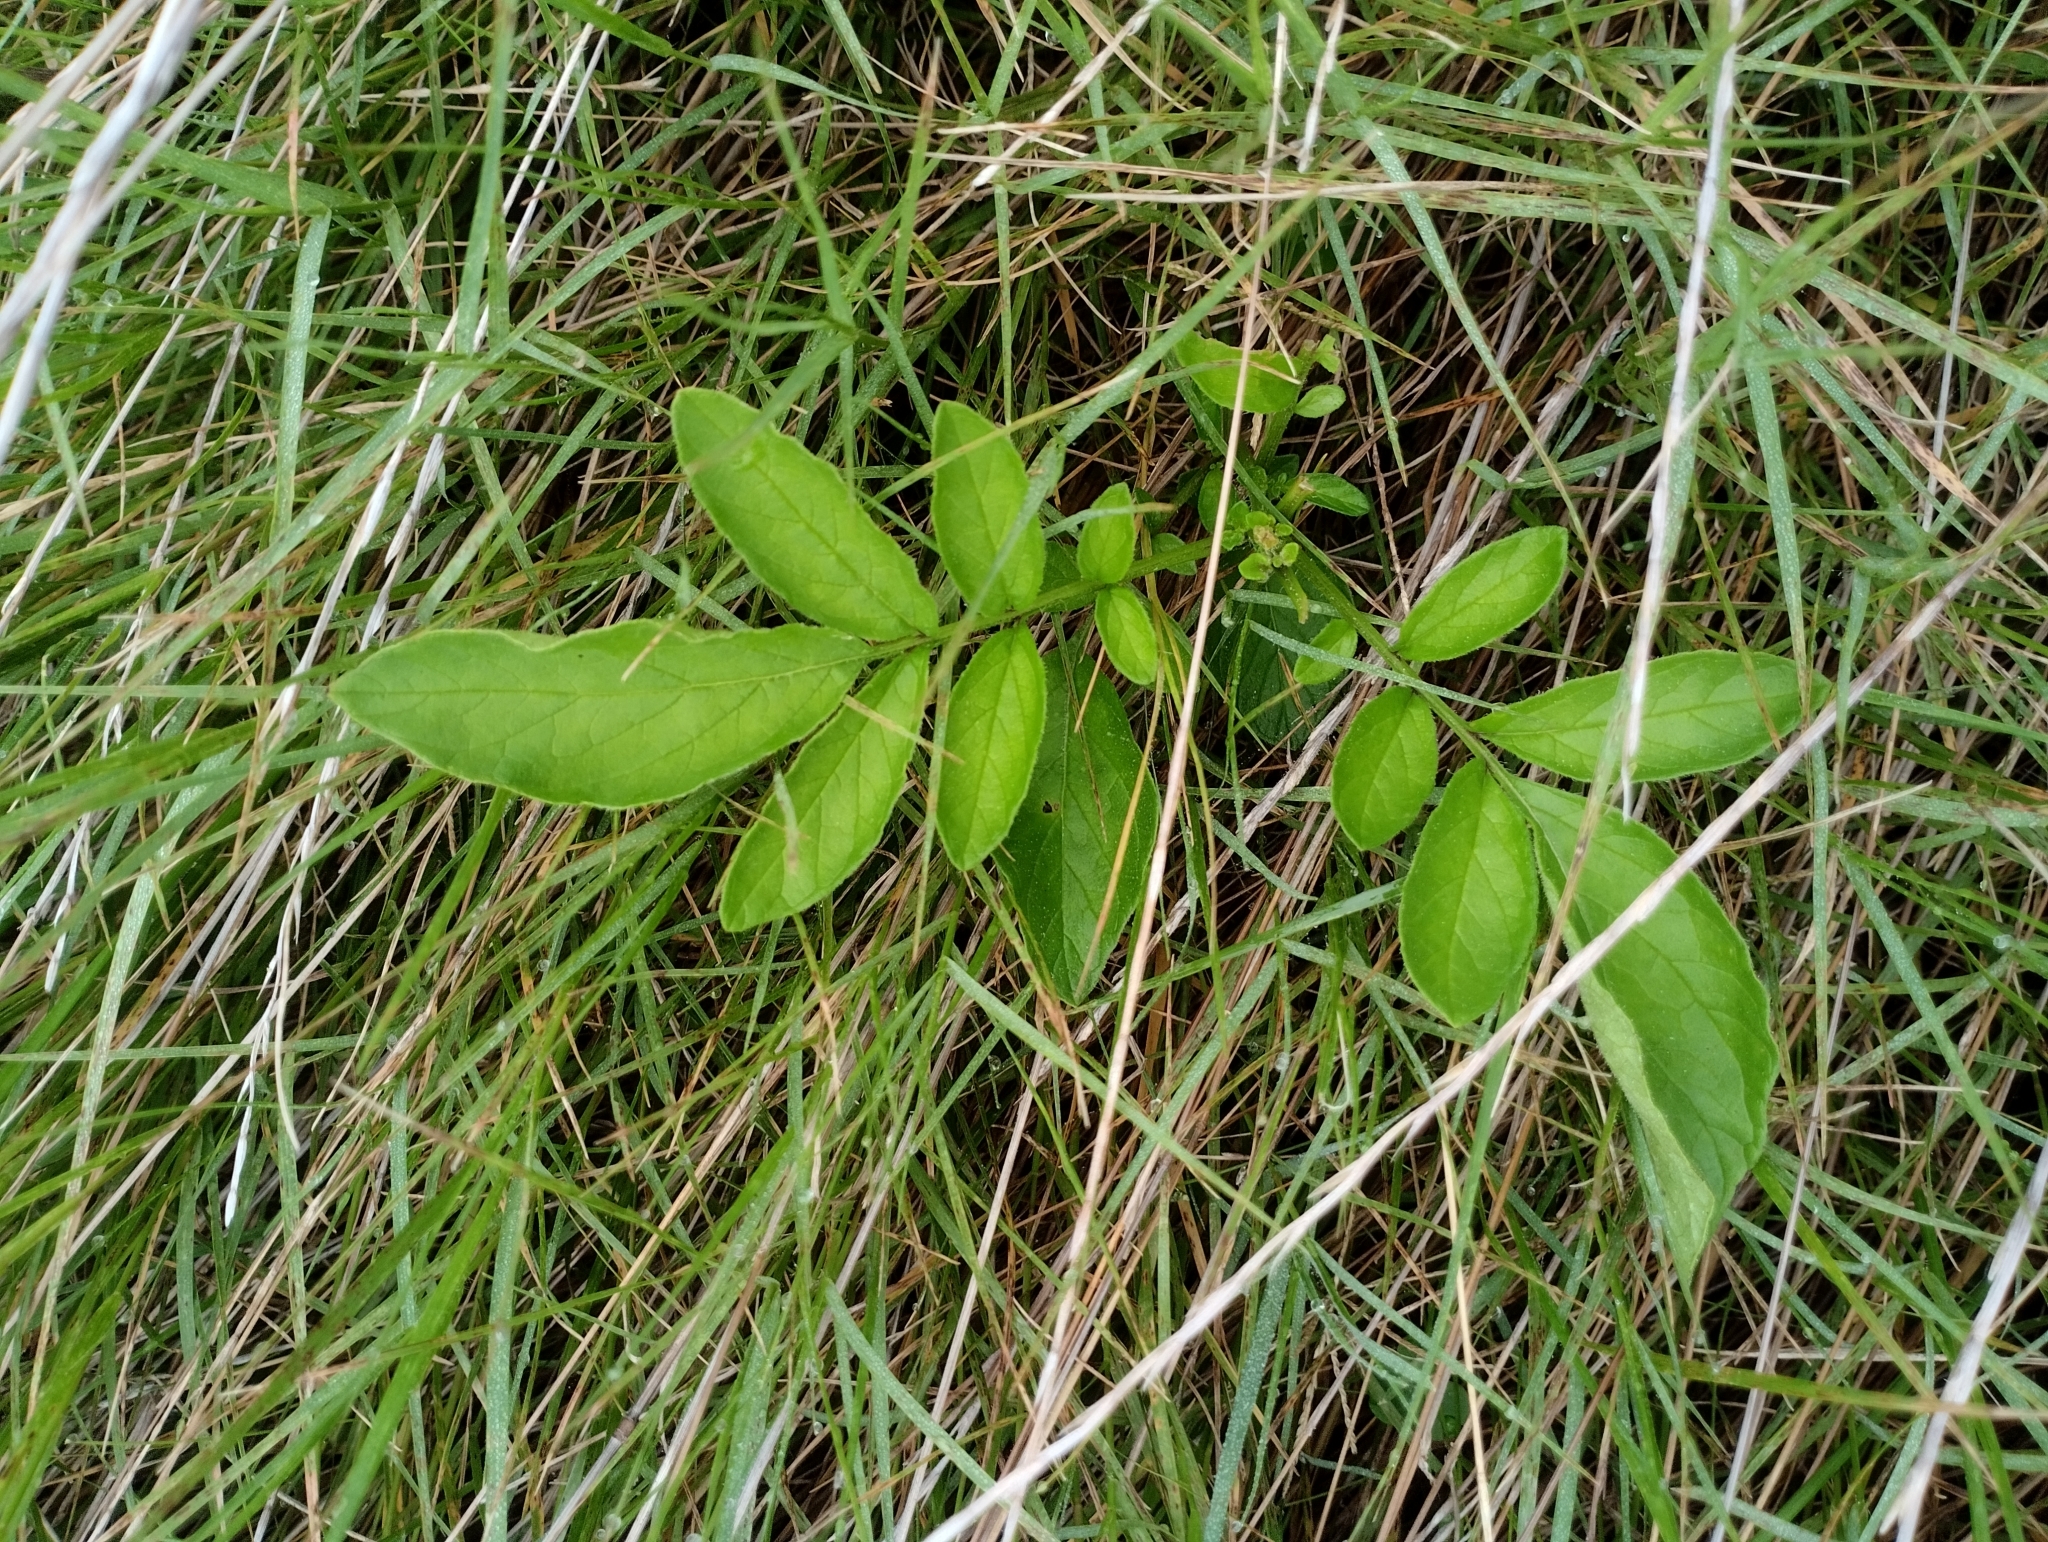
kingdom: Plantae
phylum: Tracheophyta
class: Magnoliopsida
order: Solanales
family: Solanaceae
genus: Solanum
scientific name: Solanum commersonii
